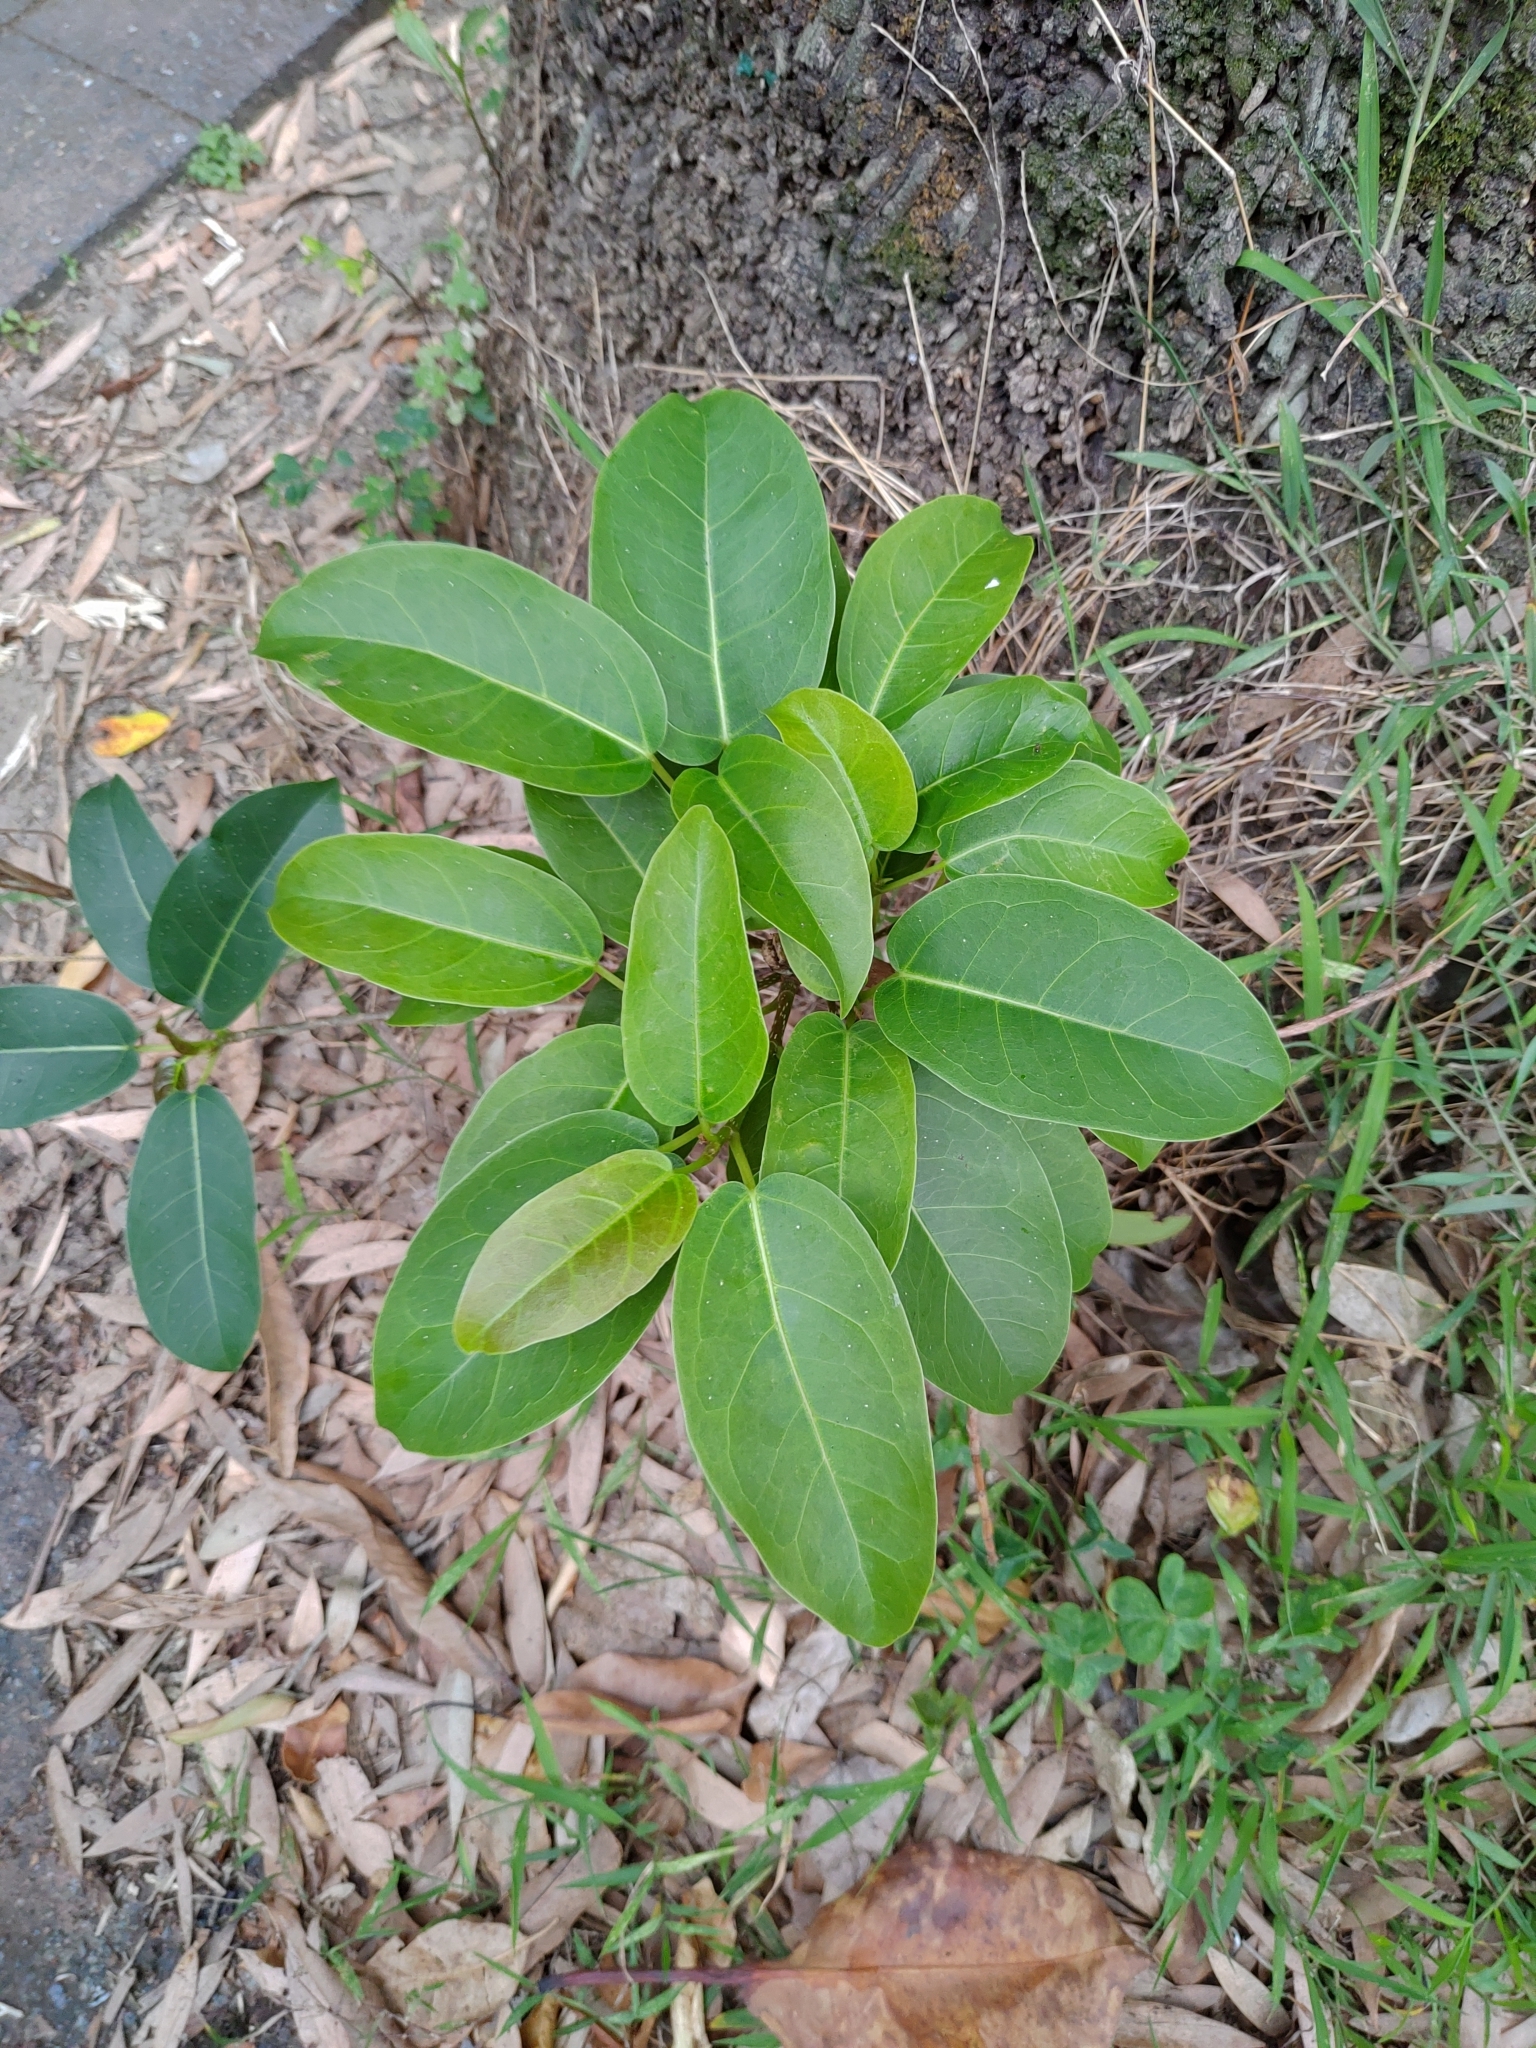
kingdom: Plantae
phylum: Tracheophyta
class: Magnoliopsida
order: Rosales
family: Moraceae
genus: Ficus
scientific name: Ficus subpisocarpa
